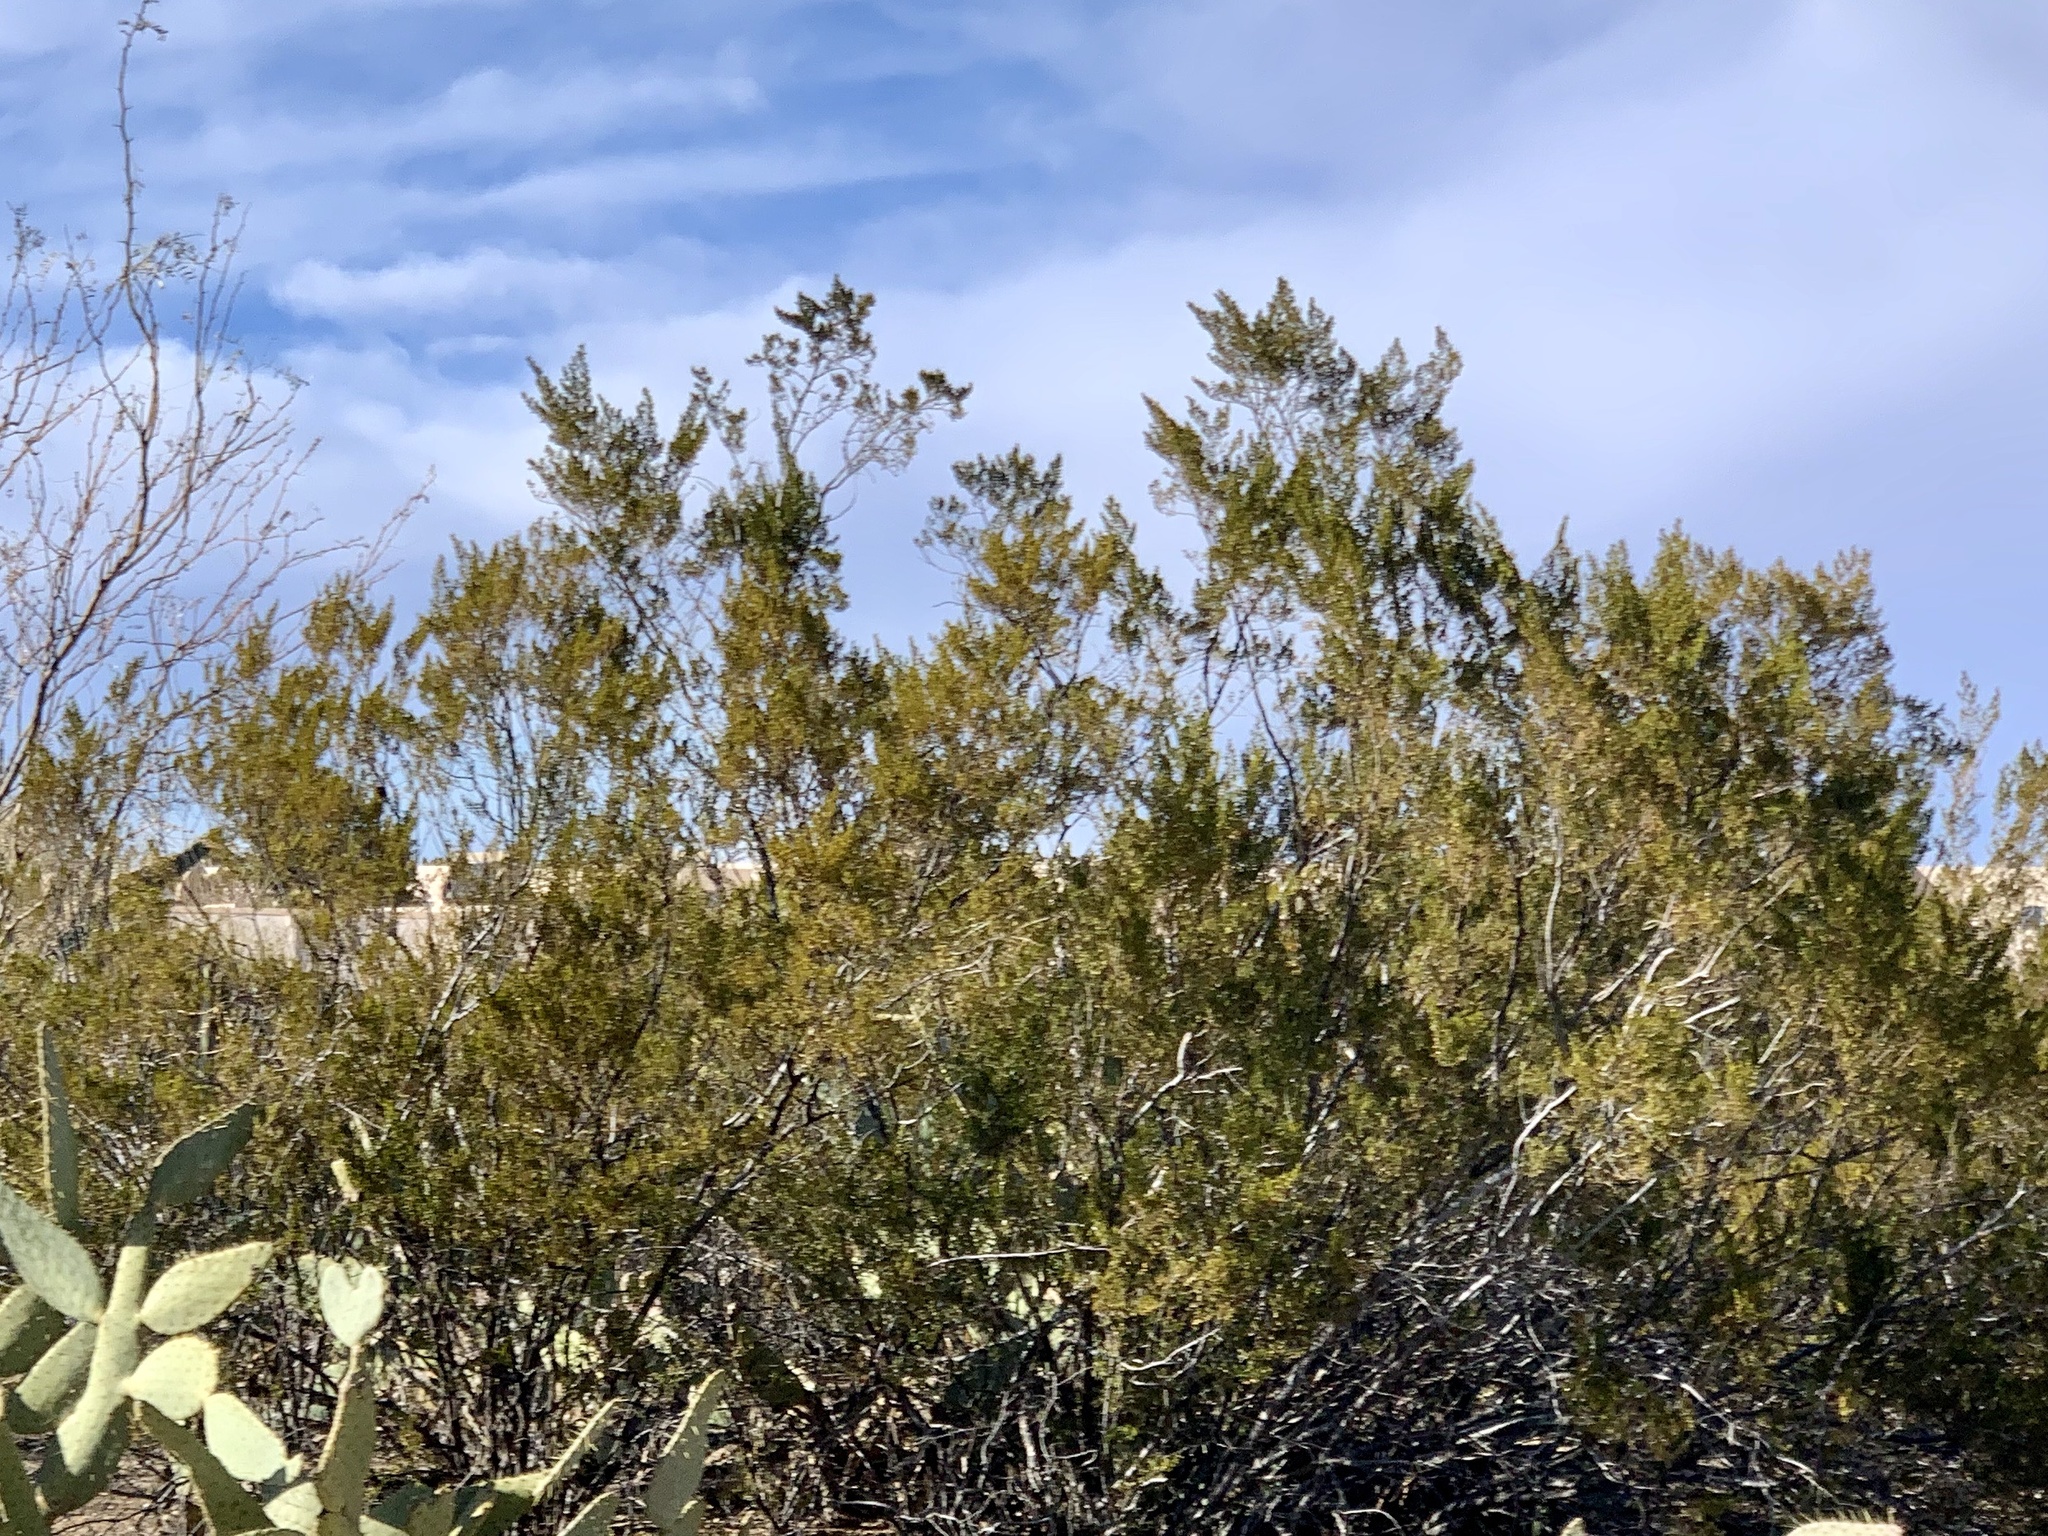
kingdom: Plantae
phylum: Tracheophyta
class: Magnoliopsida
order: Zygophyllales
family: Zygophyllaceae
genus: Larrea
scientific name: Larrea tridentata
